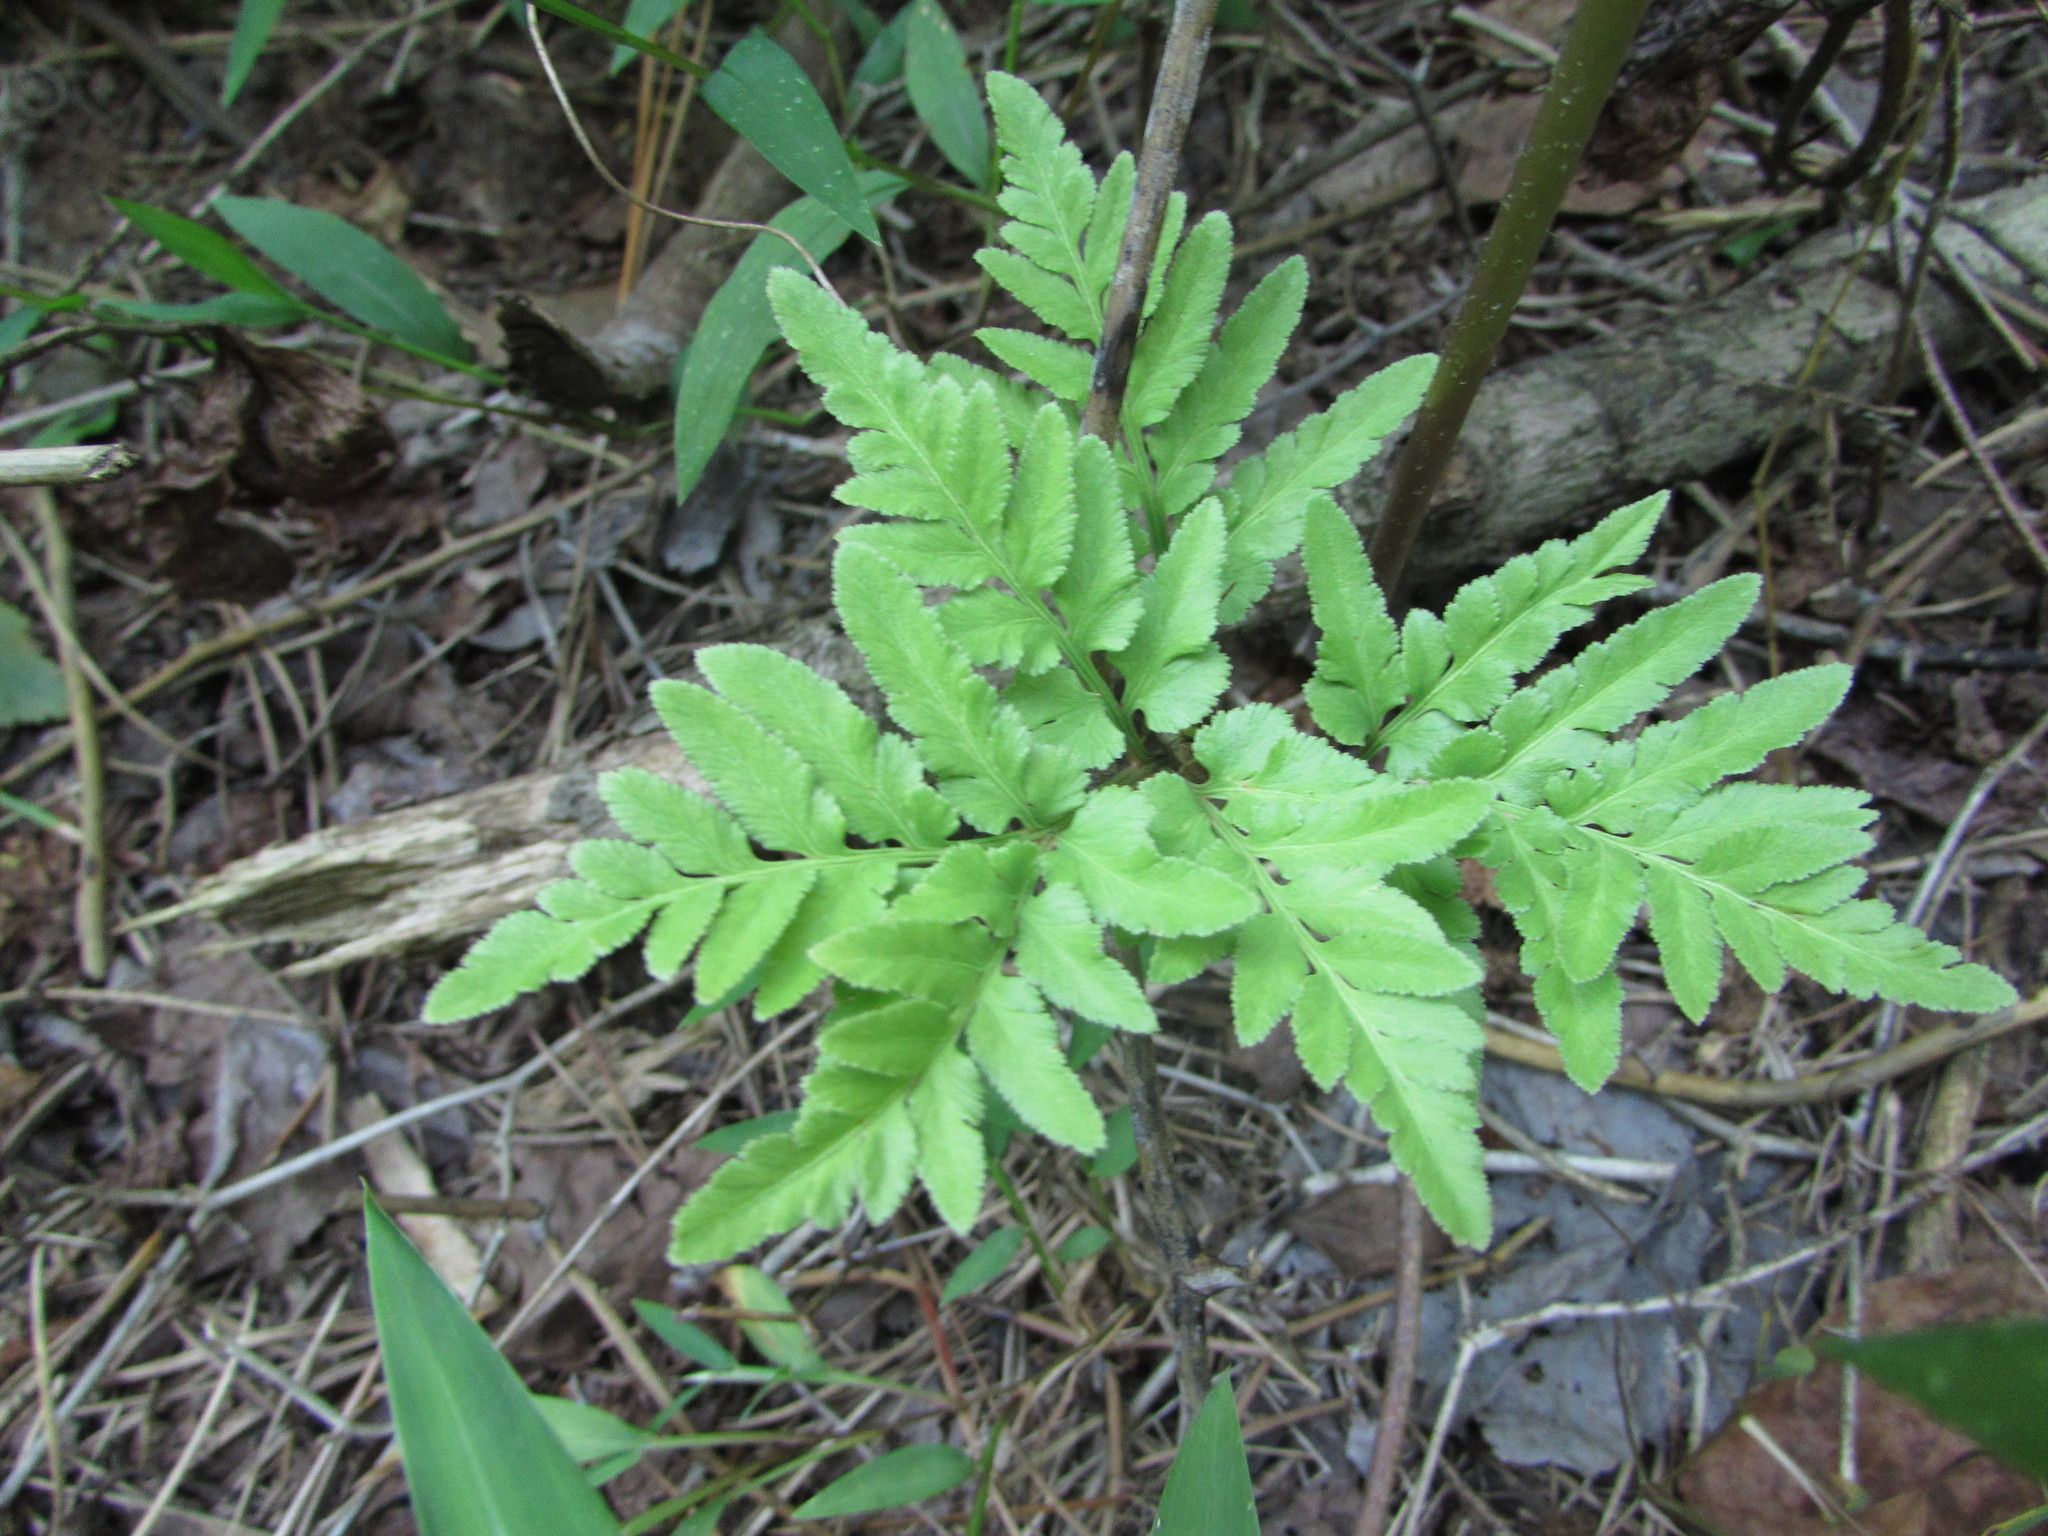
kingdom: Plantae
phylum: Tracheophyta
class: Polypodiopsida
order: Ophioglossales
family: Ophioglossaceae
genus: Sceptridium
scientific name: Sceptridium dissectum
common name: Cut-leaved grapefern
